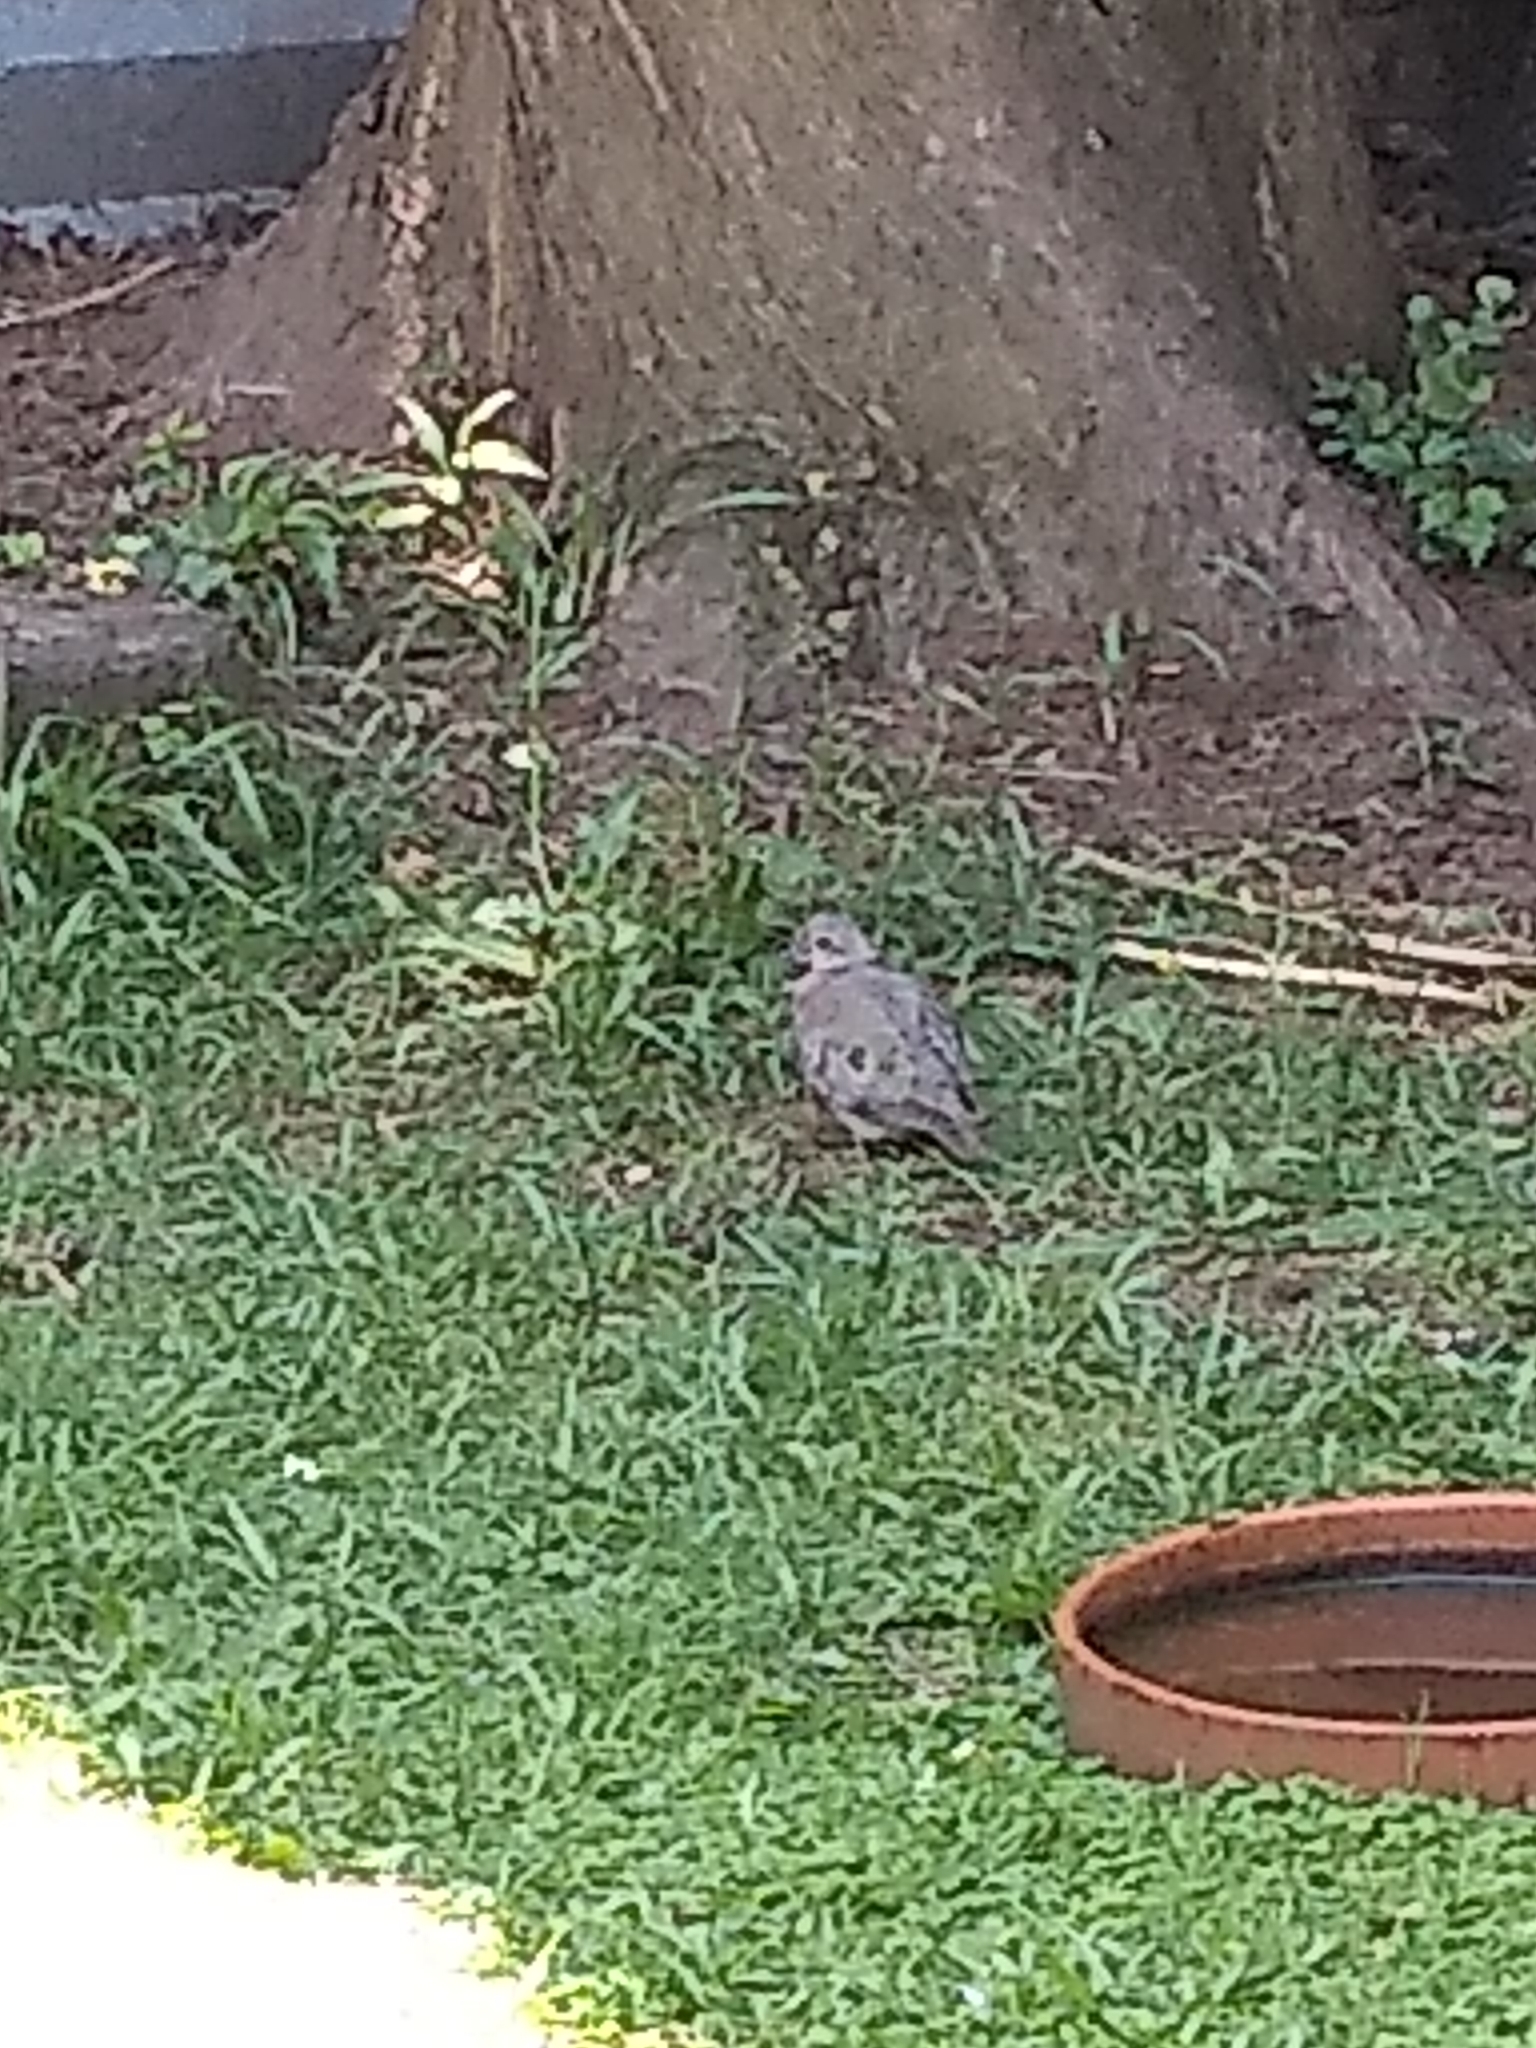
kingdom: Animalia
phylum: Chordata
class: Aves
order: Columbiformes
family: Columbidae
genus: Zenaida
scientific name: Zenaida auriculata
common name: Eared dove
